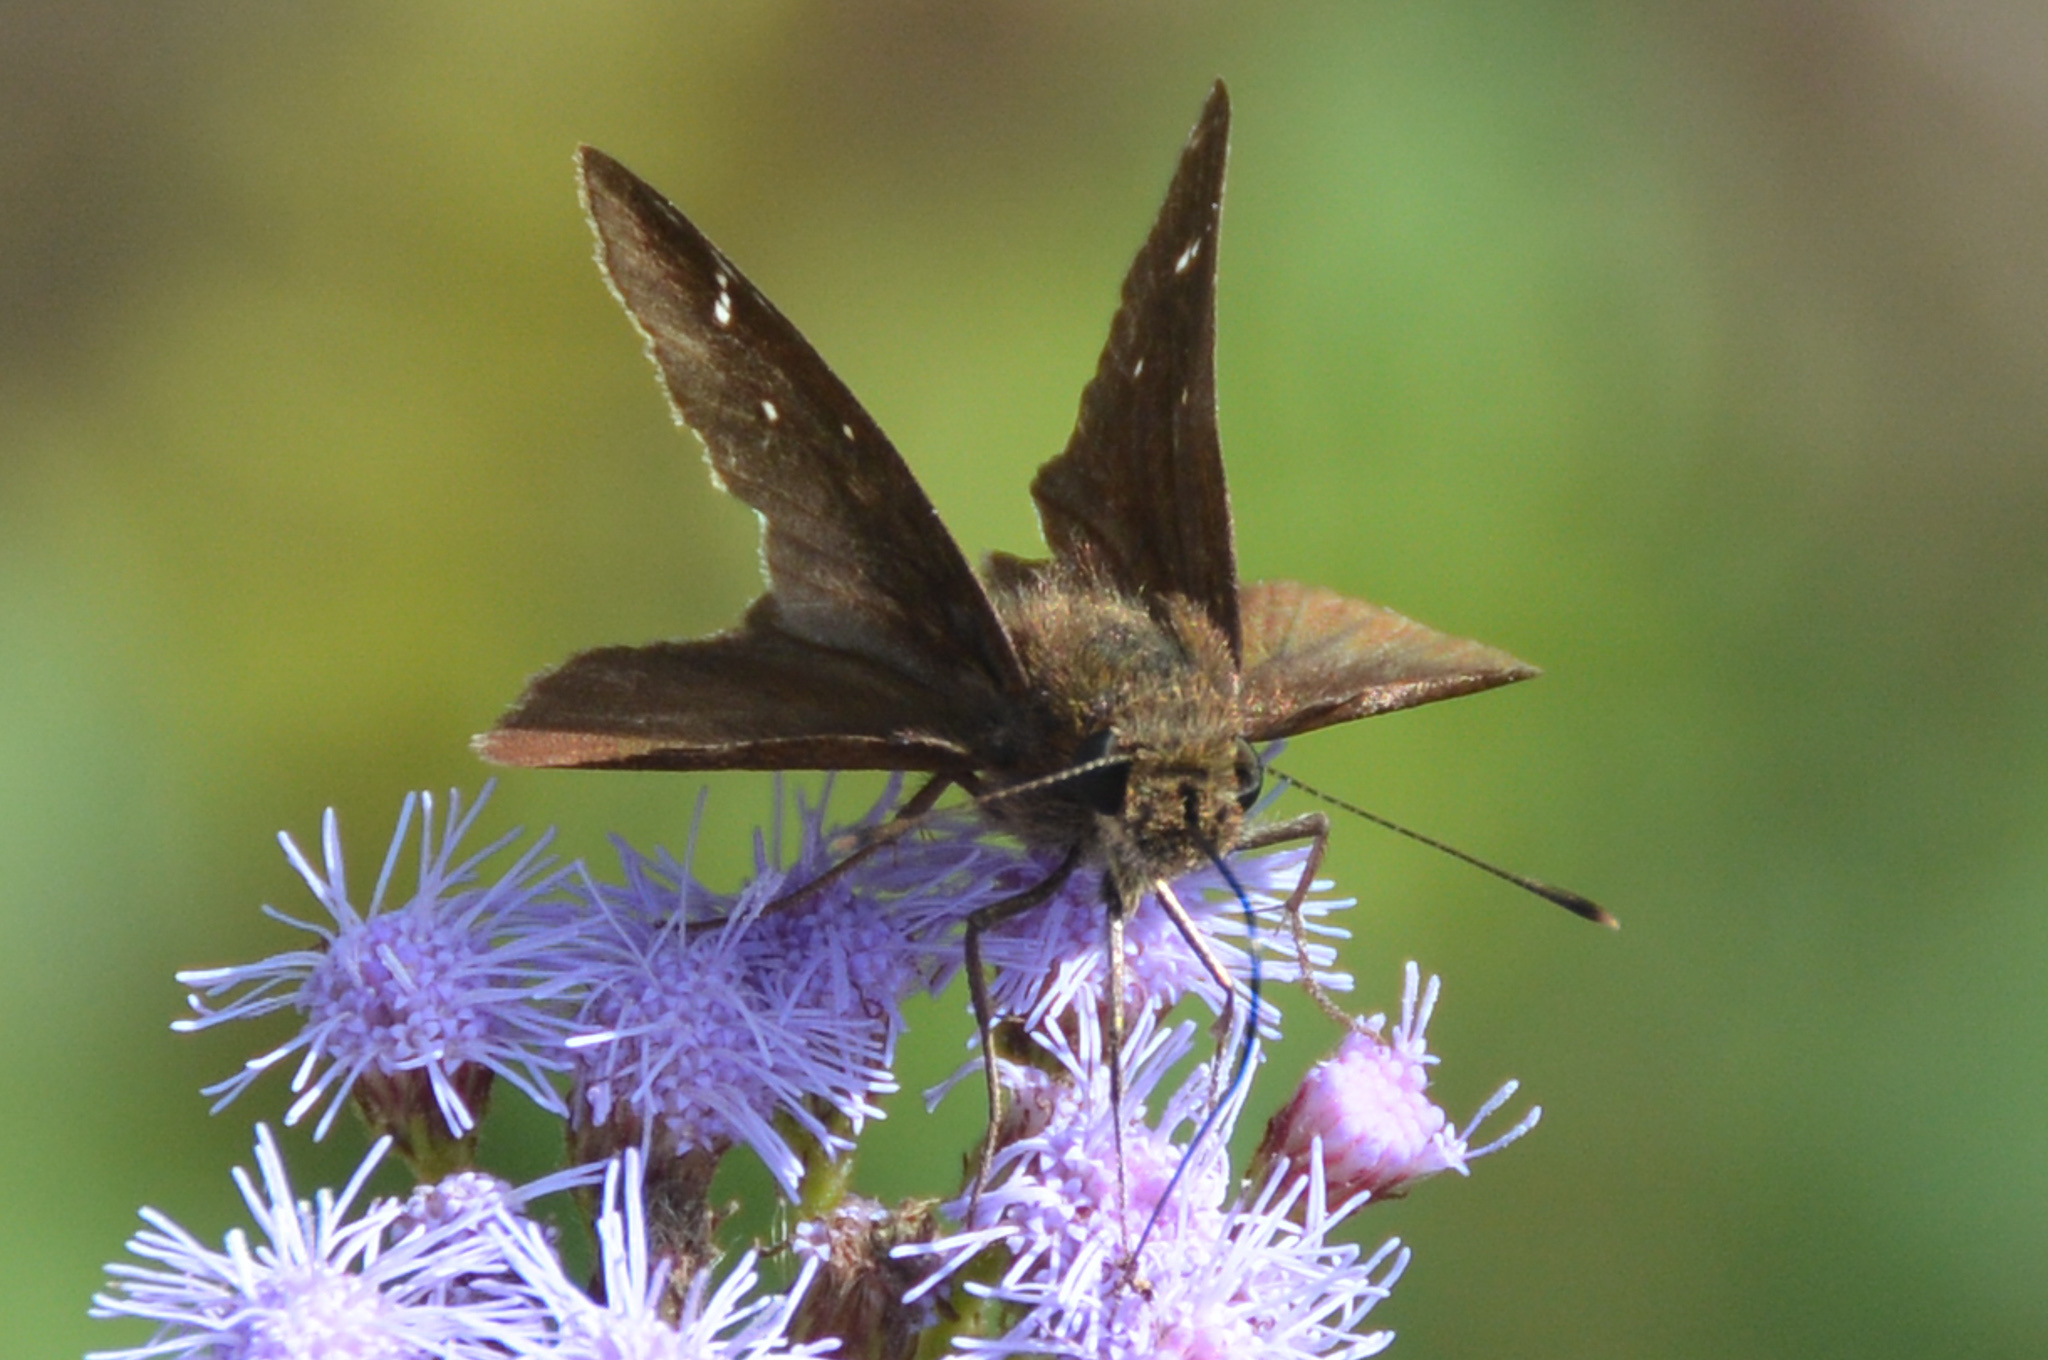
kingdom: Animalia
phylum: Arthropoda
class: Insecta
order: Lepidoptera
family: Hesperiidae
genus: Lerema
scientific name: Lerema accius
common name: Clouded skipper
